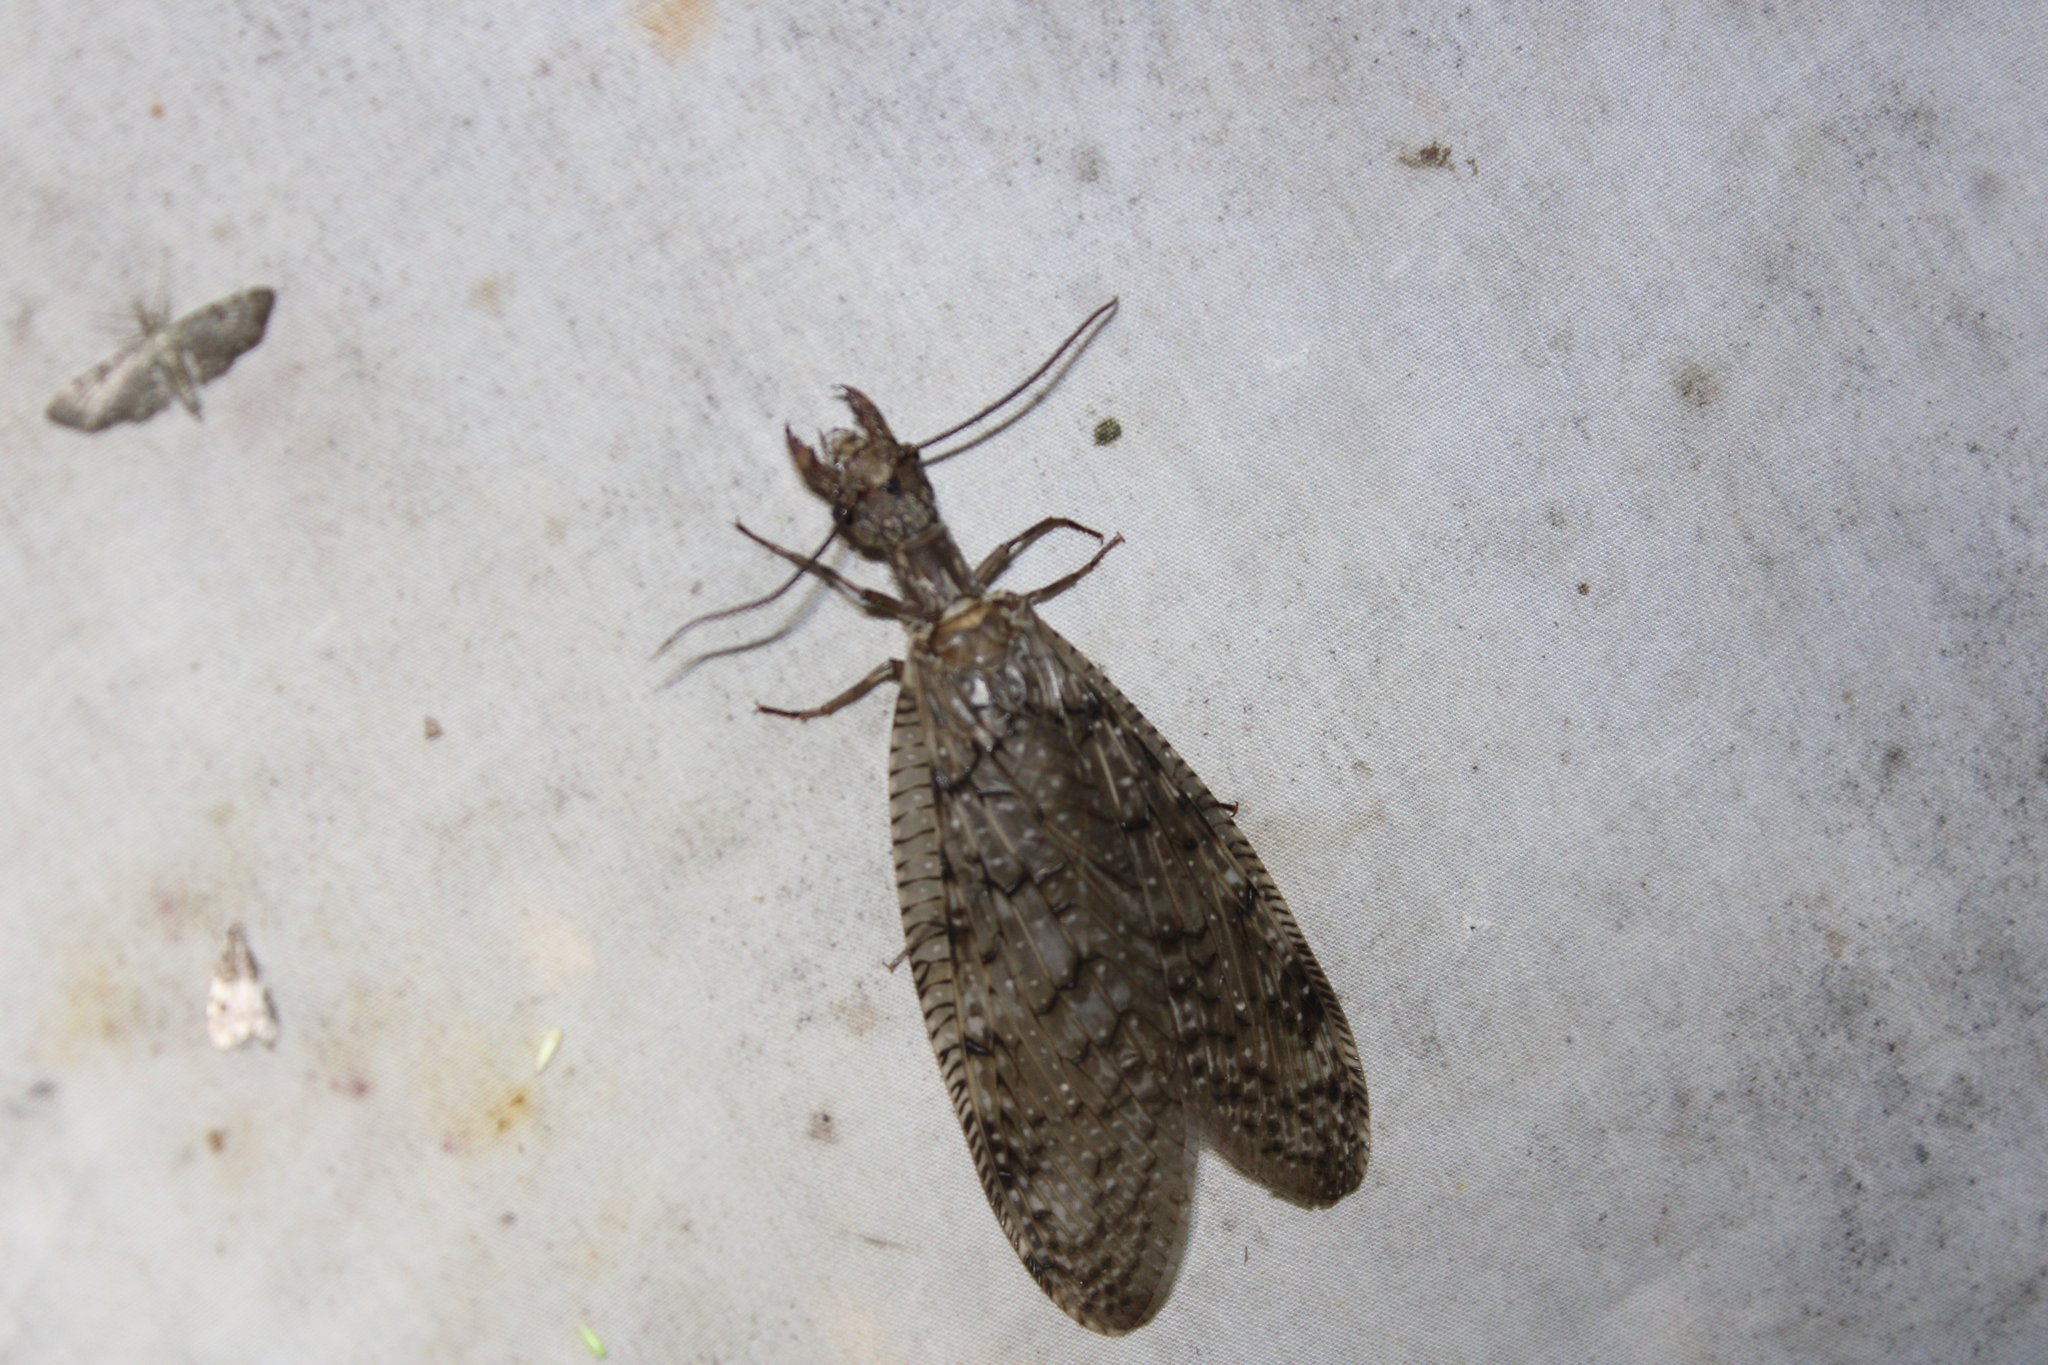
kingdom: Animalia
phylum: Arthropoda
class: Insecta
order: Megaloptera
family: Corydalidae
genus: Corydalus
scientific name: Corydalus cornutus
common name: Dobsonfly
